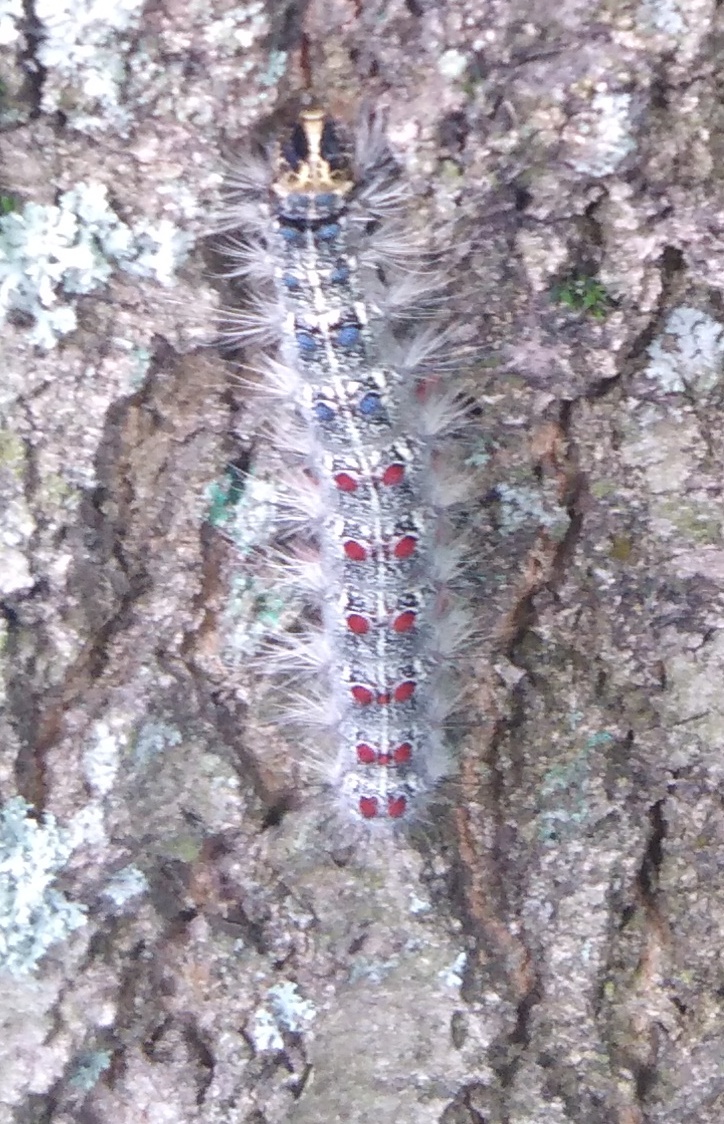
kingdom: Animalia
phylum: Arthropoda
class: Insecta
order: Lepidoptera
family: Erebidae
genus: Lymantria
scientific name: Lymantria dispar
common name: Gypsy moth
